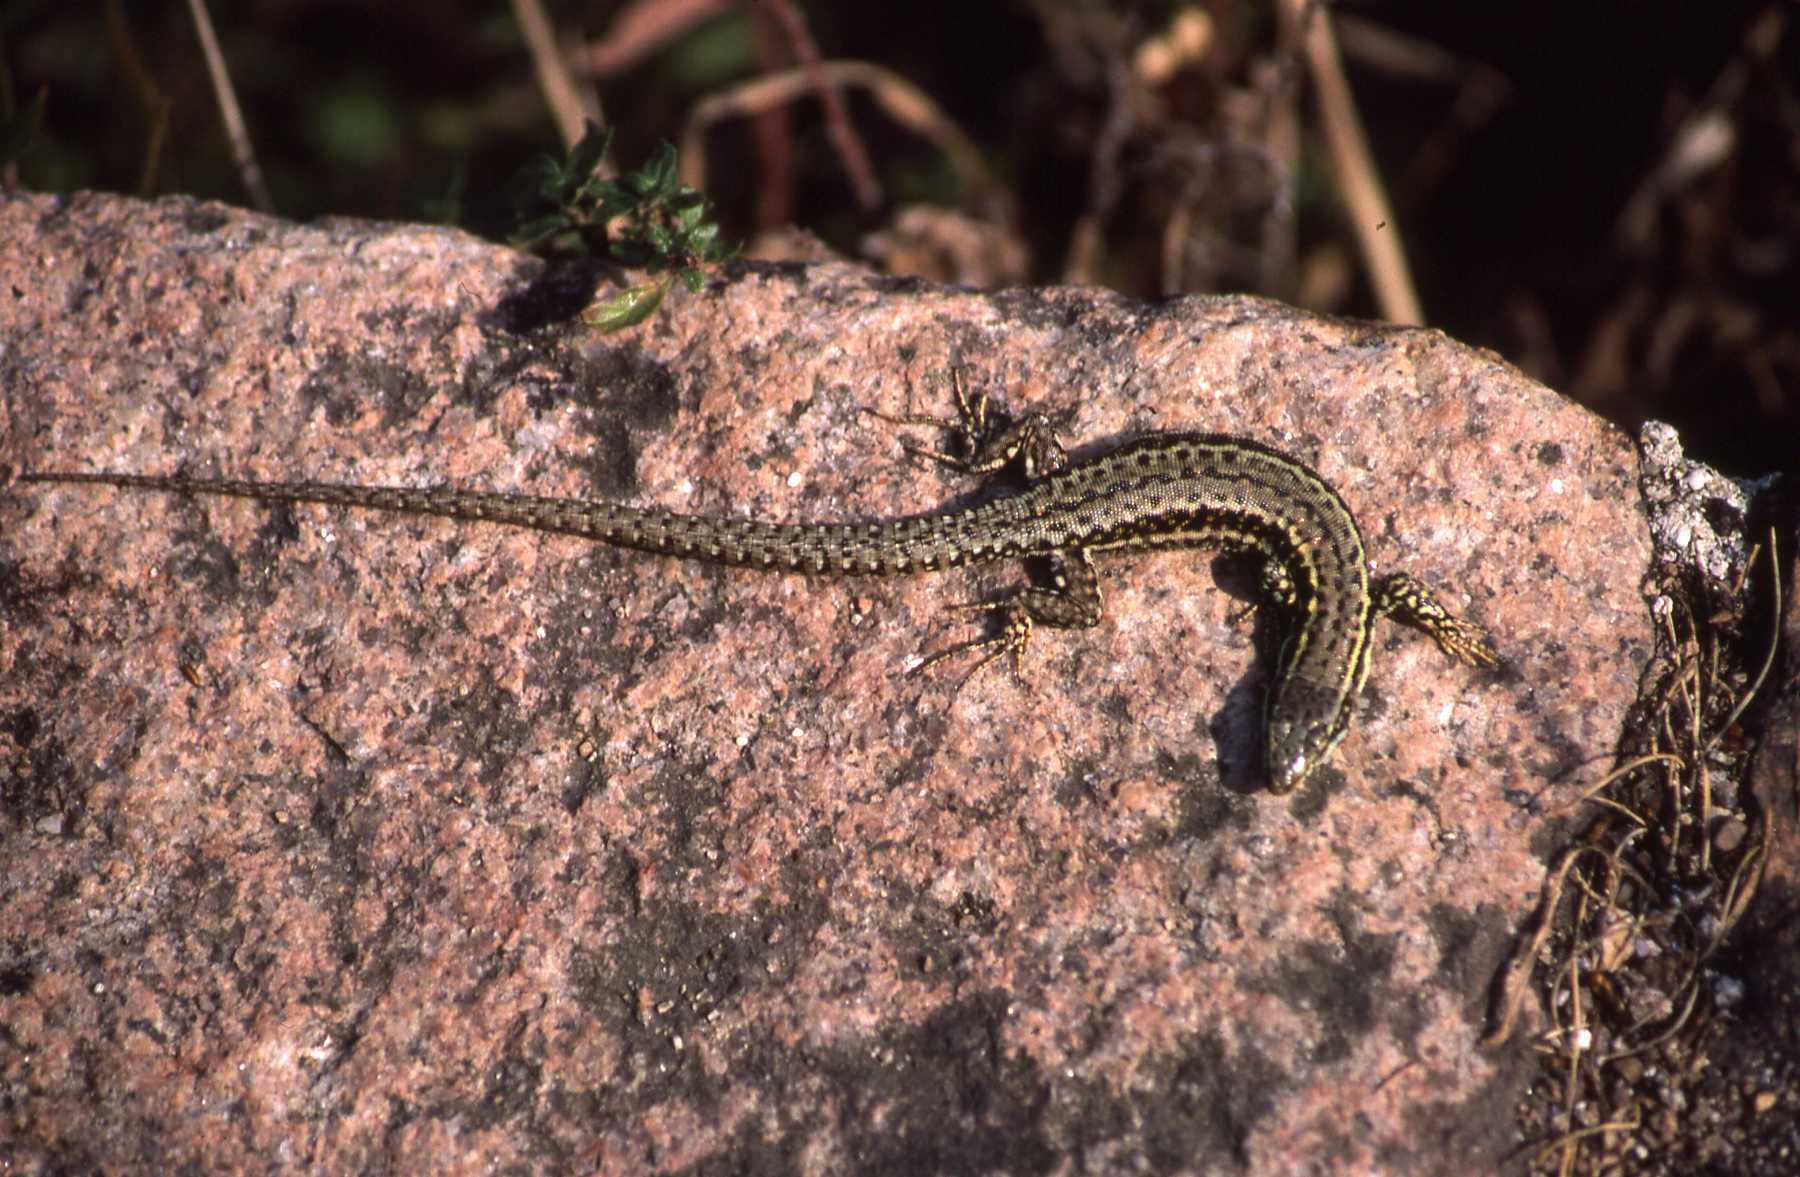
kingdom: Animalia
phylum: Chordata
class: Squamata
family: Lacertidae
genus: Podarcis
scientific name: Podarcis muralis
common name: Common wall lizard
